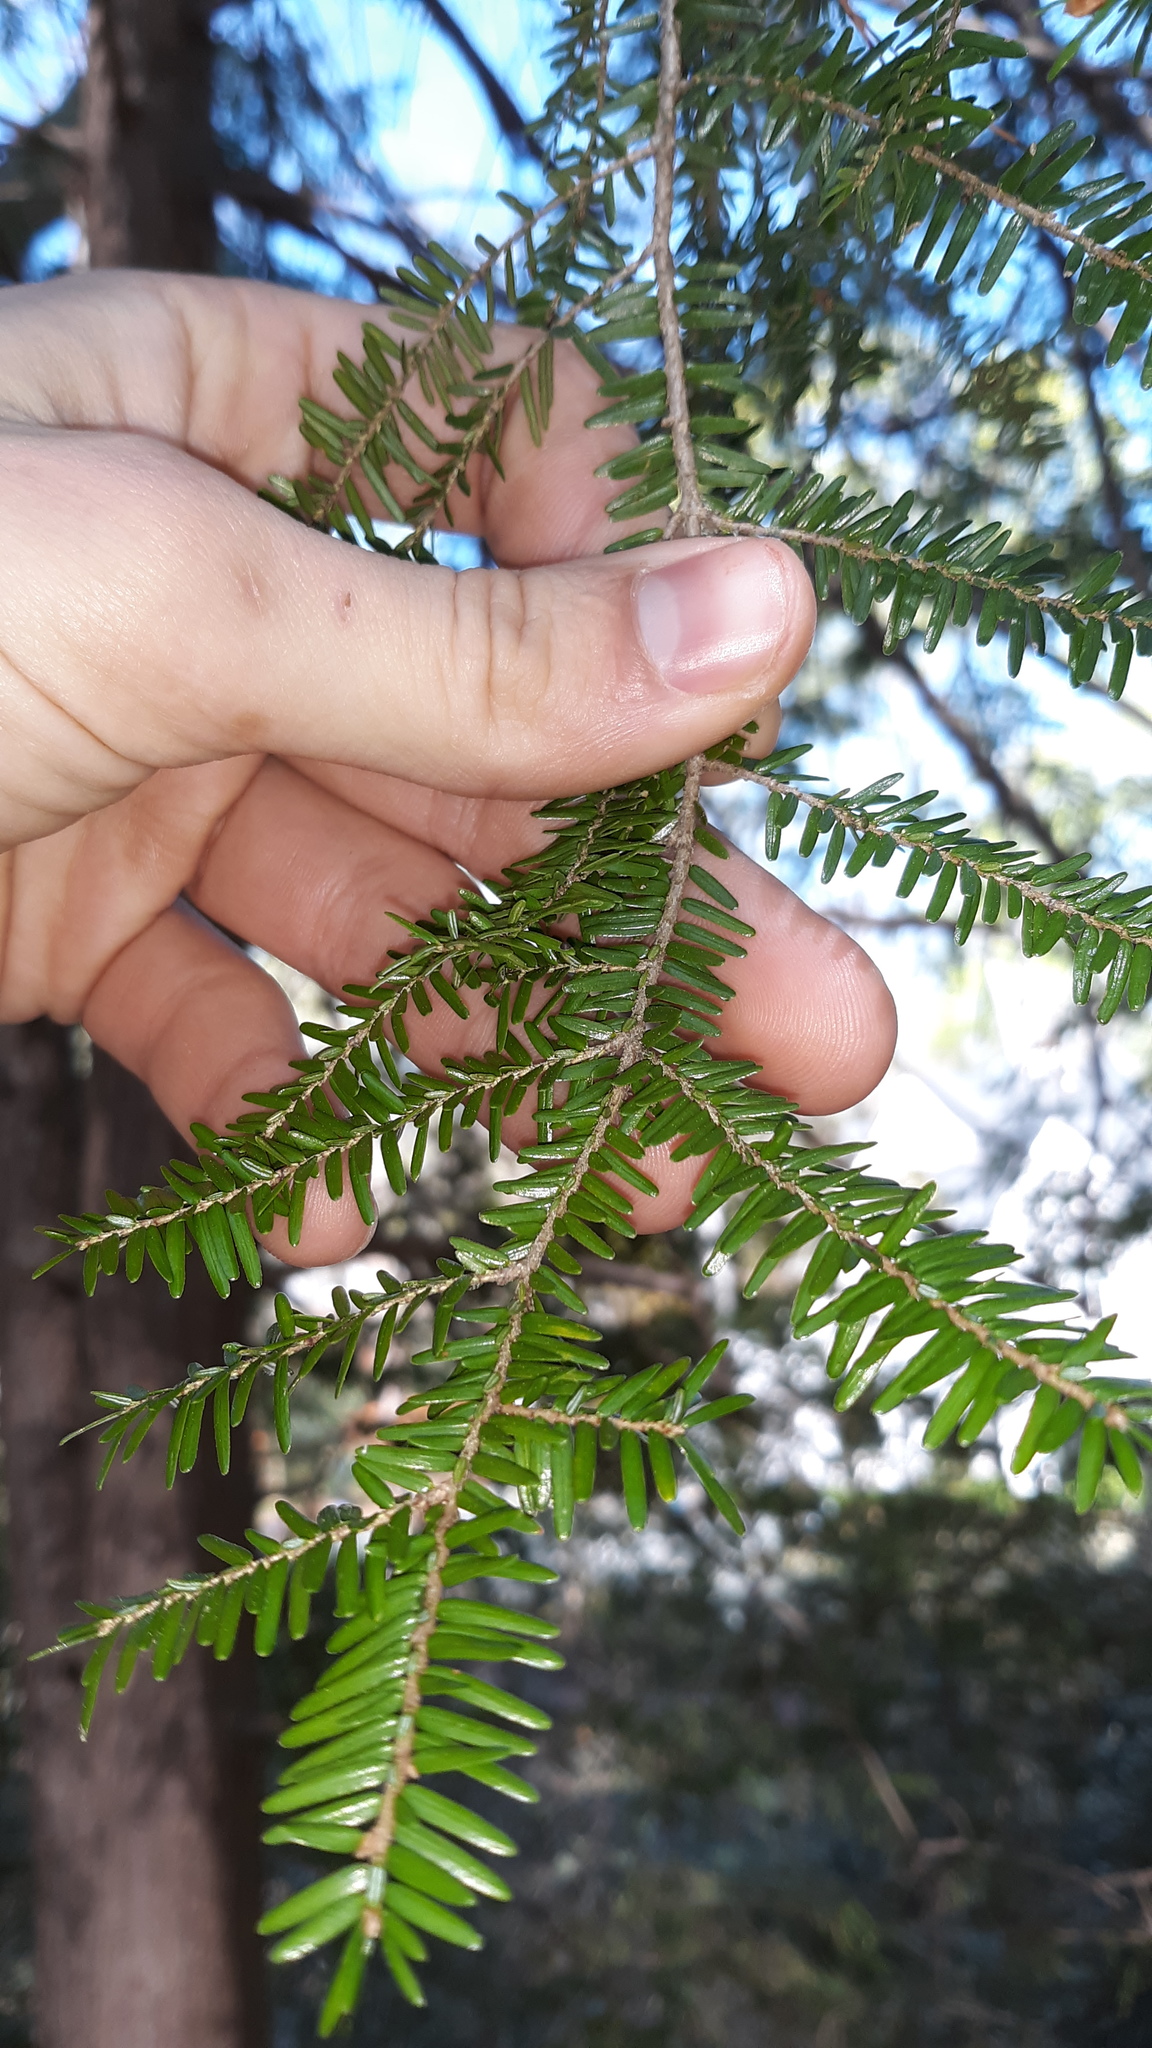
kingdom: Plantae
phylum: Tracheophyta
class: Pinopsida
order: Pinales
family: Pinaceae
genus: Tsuga
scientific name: Tsuga canadensis
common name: Eastern hemlock
